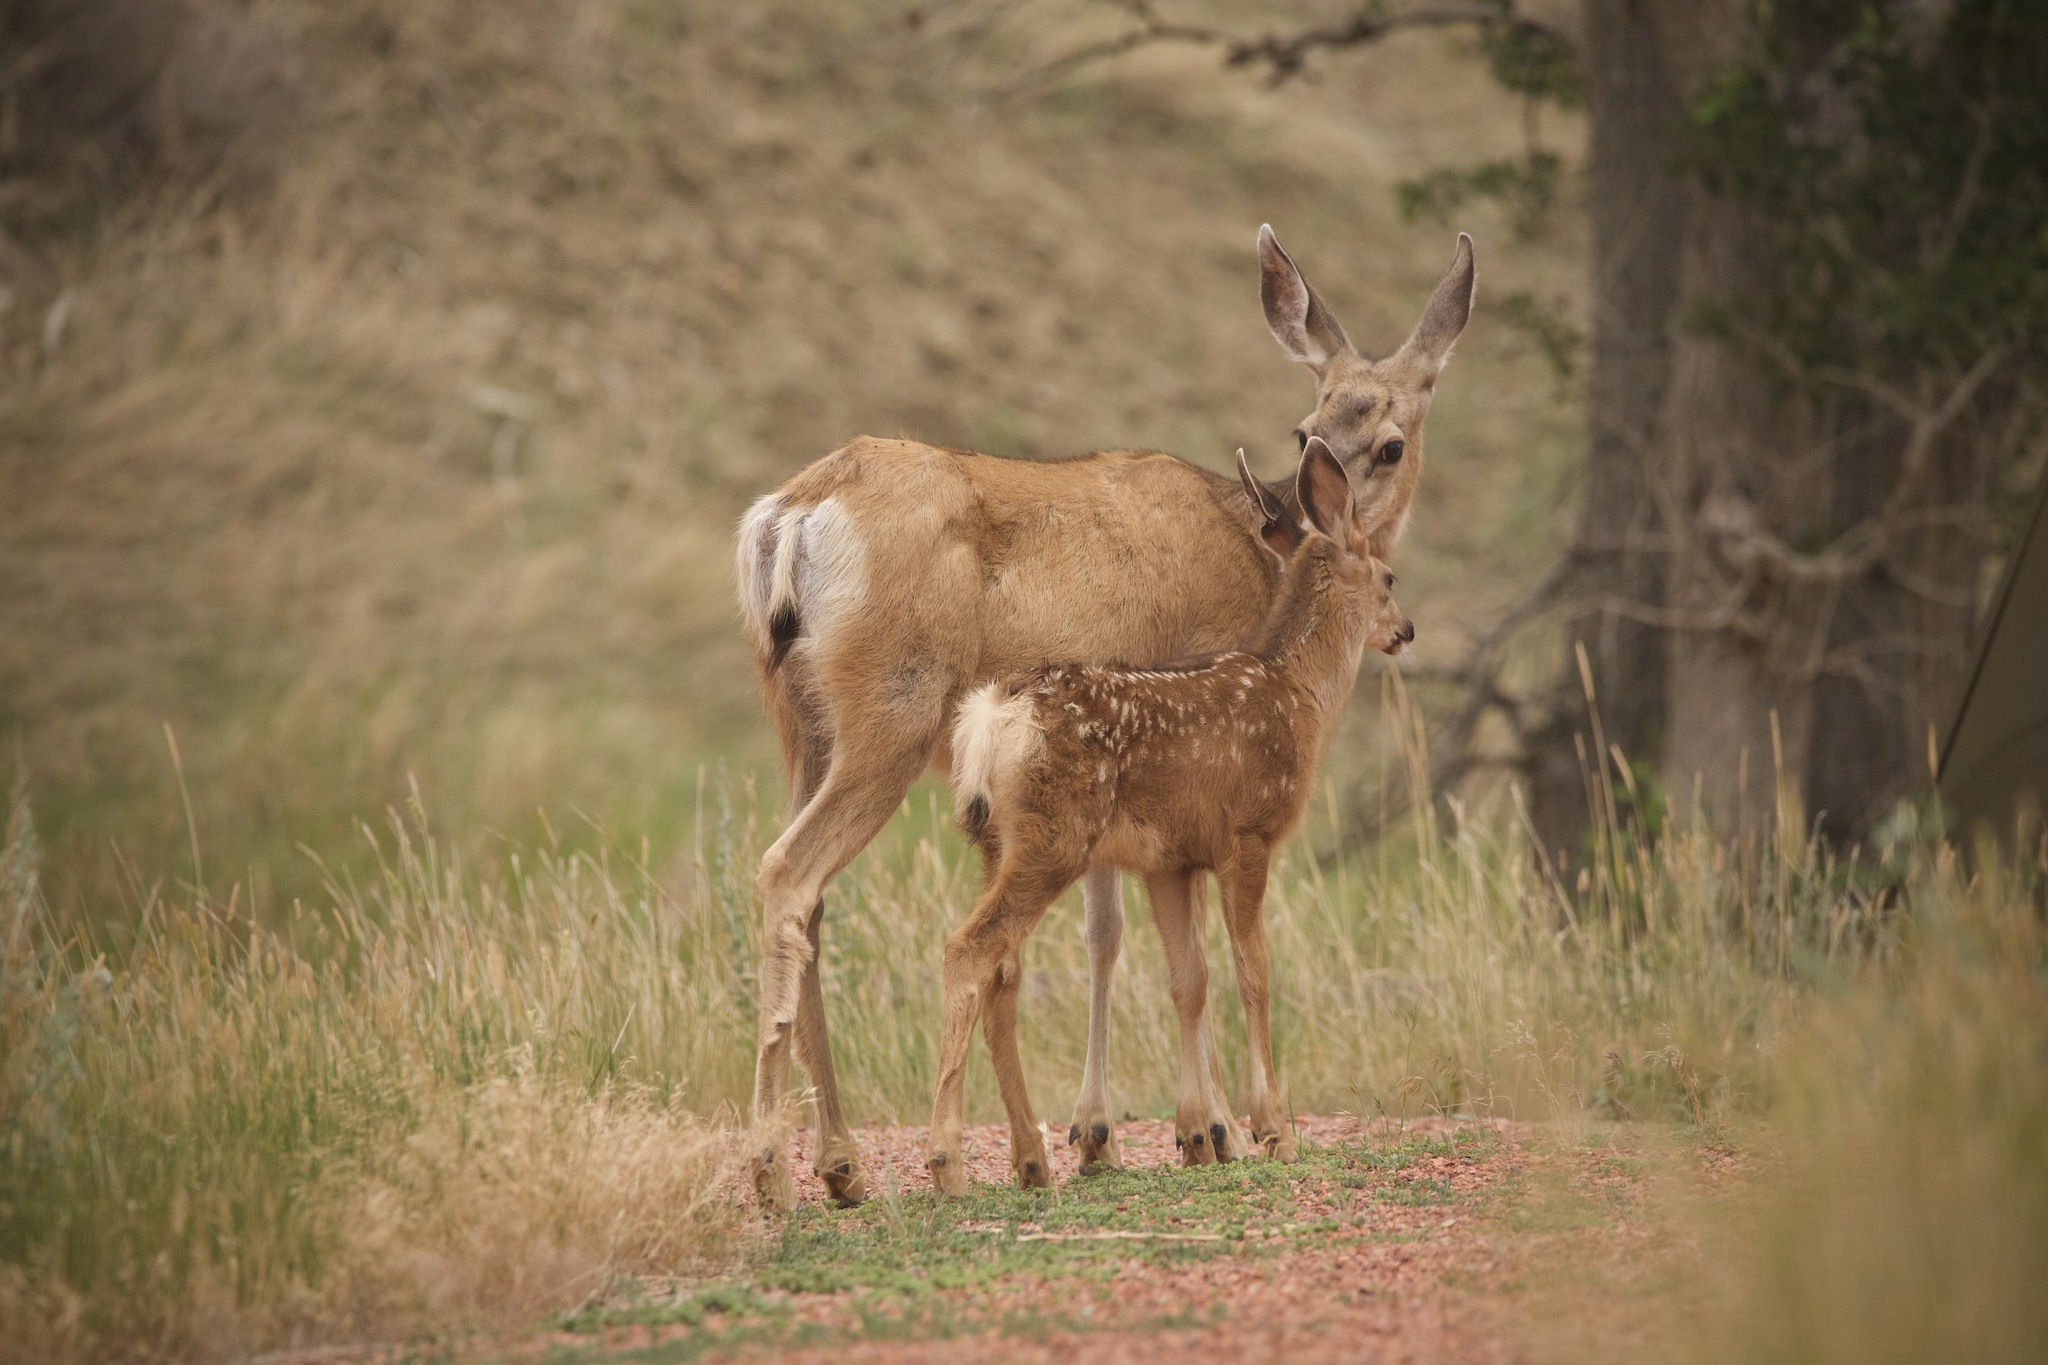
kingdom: Animalia
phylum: Chordata
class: Mammalia
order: Artiodactyla
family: Cervidae
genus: Odocoileus
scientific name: Odocoileus hemionus
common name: Mule deer
